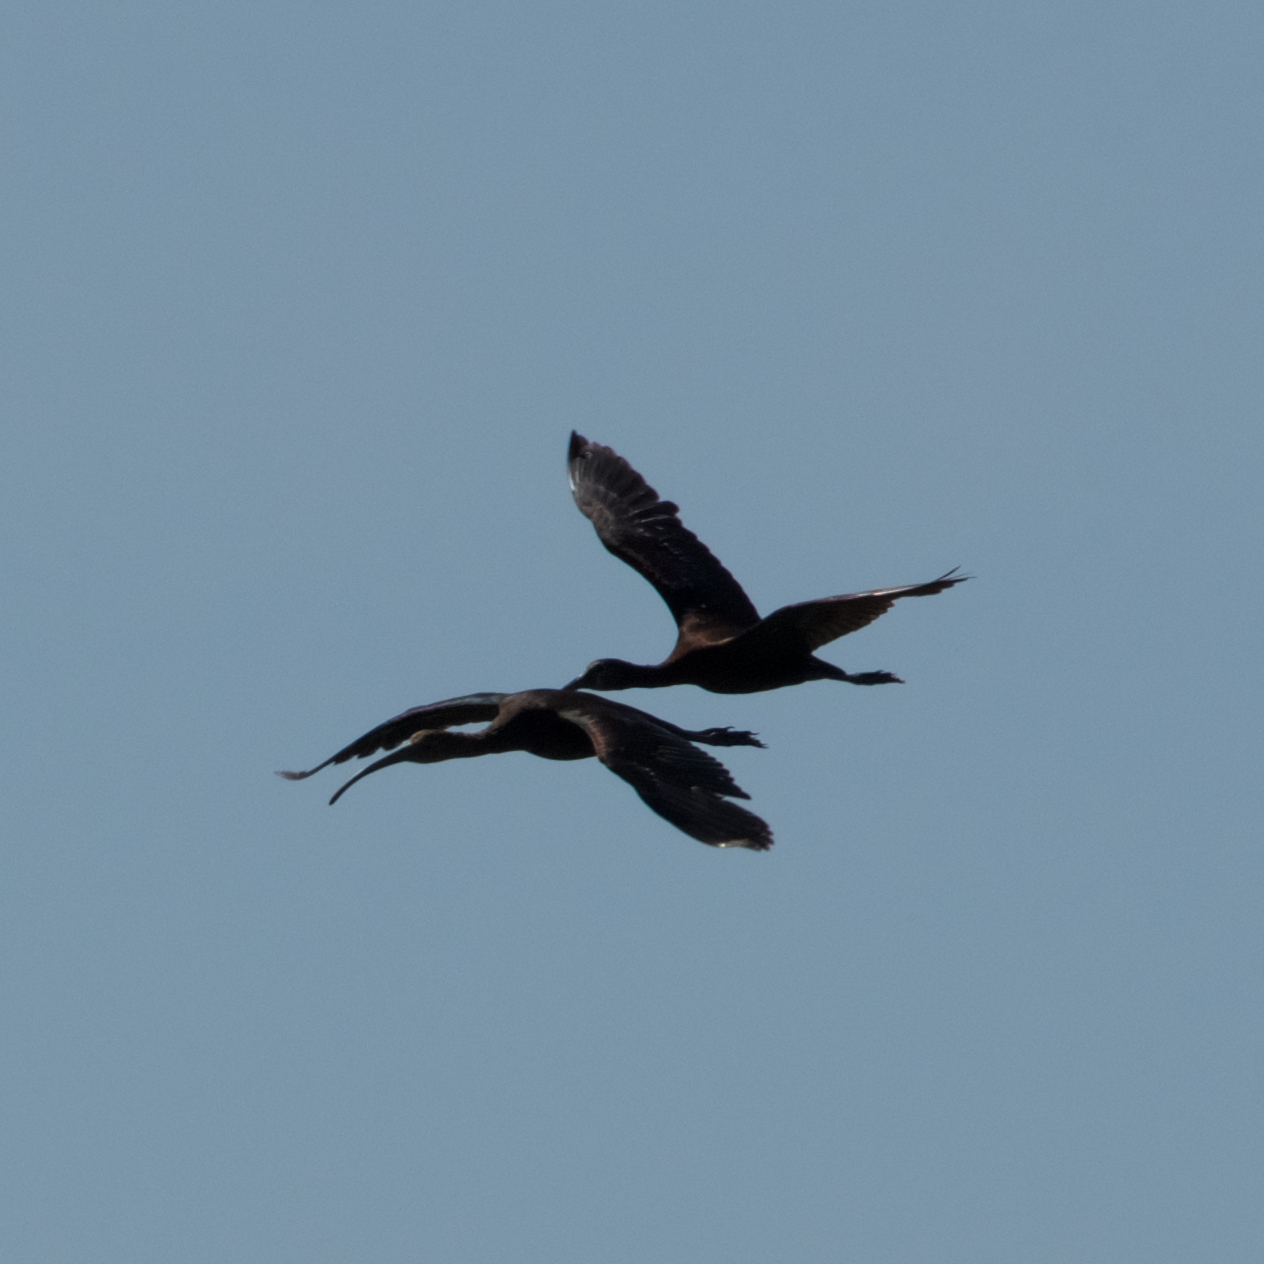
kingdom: Animalia
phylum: Chordata
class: Aves
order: Pelecaniformes
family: Threskiornithidae
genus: Plegadis
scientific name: Plegadis chihi
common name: White-faced ibis
